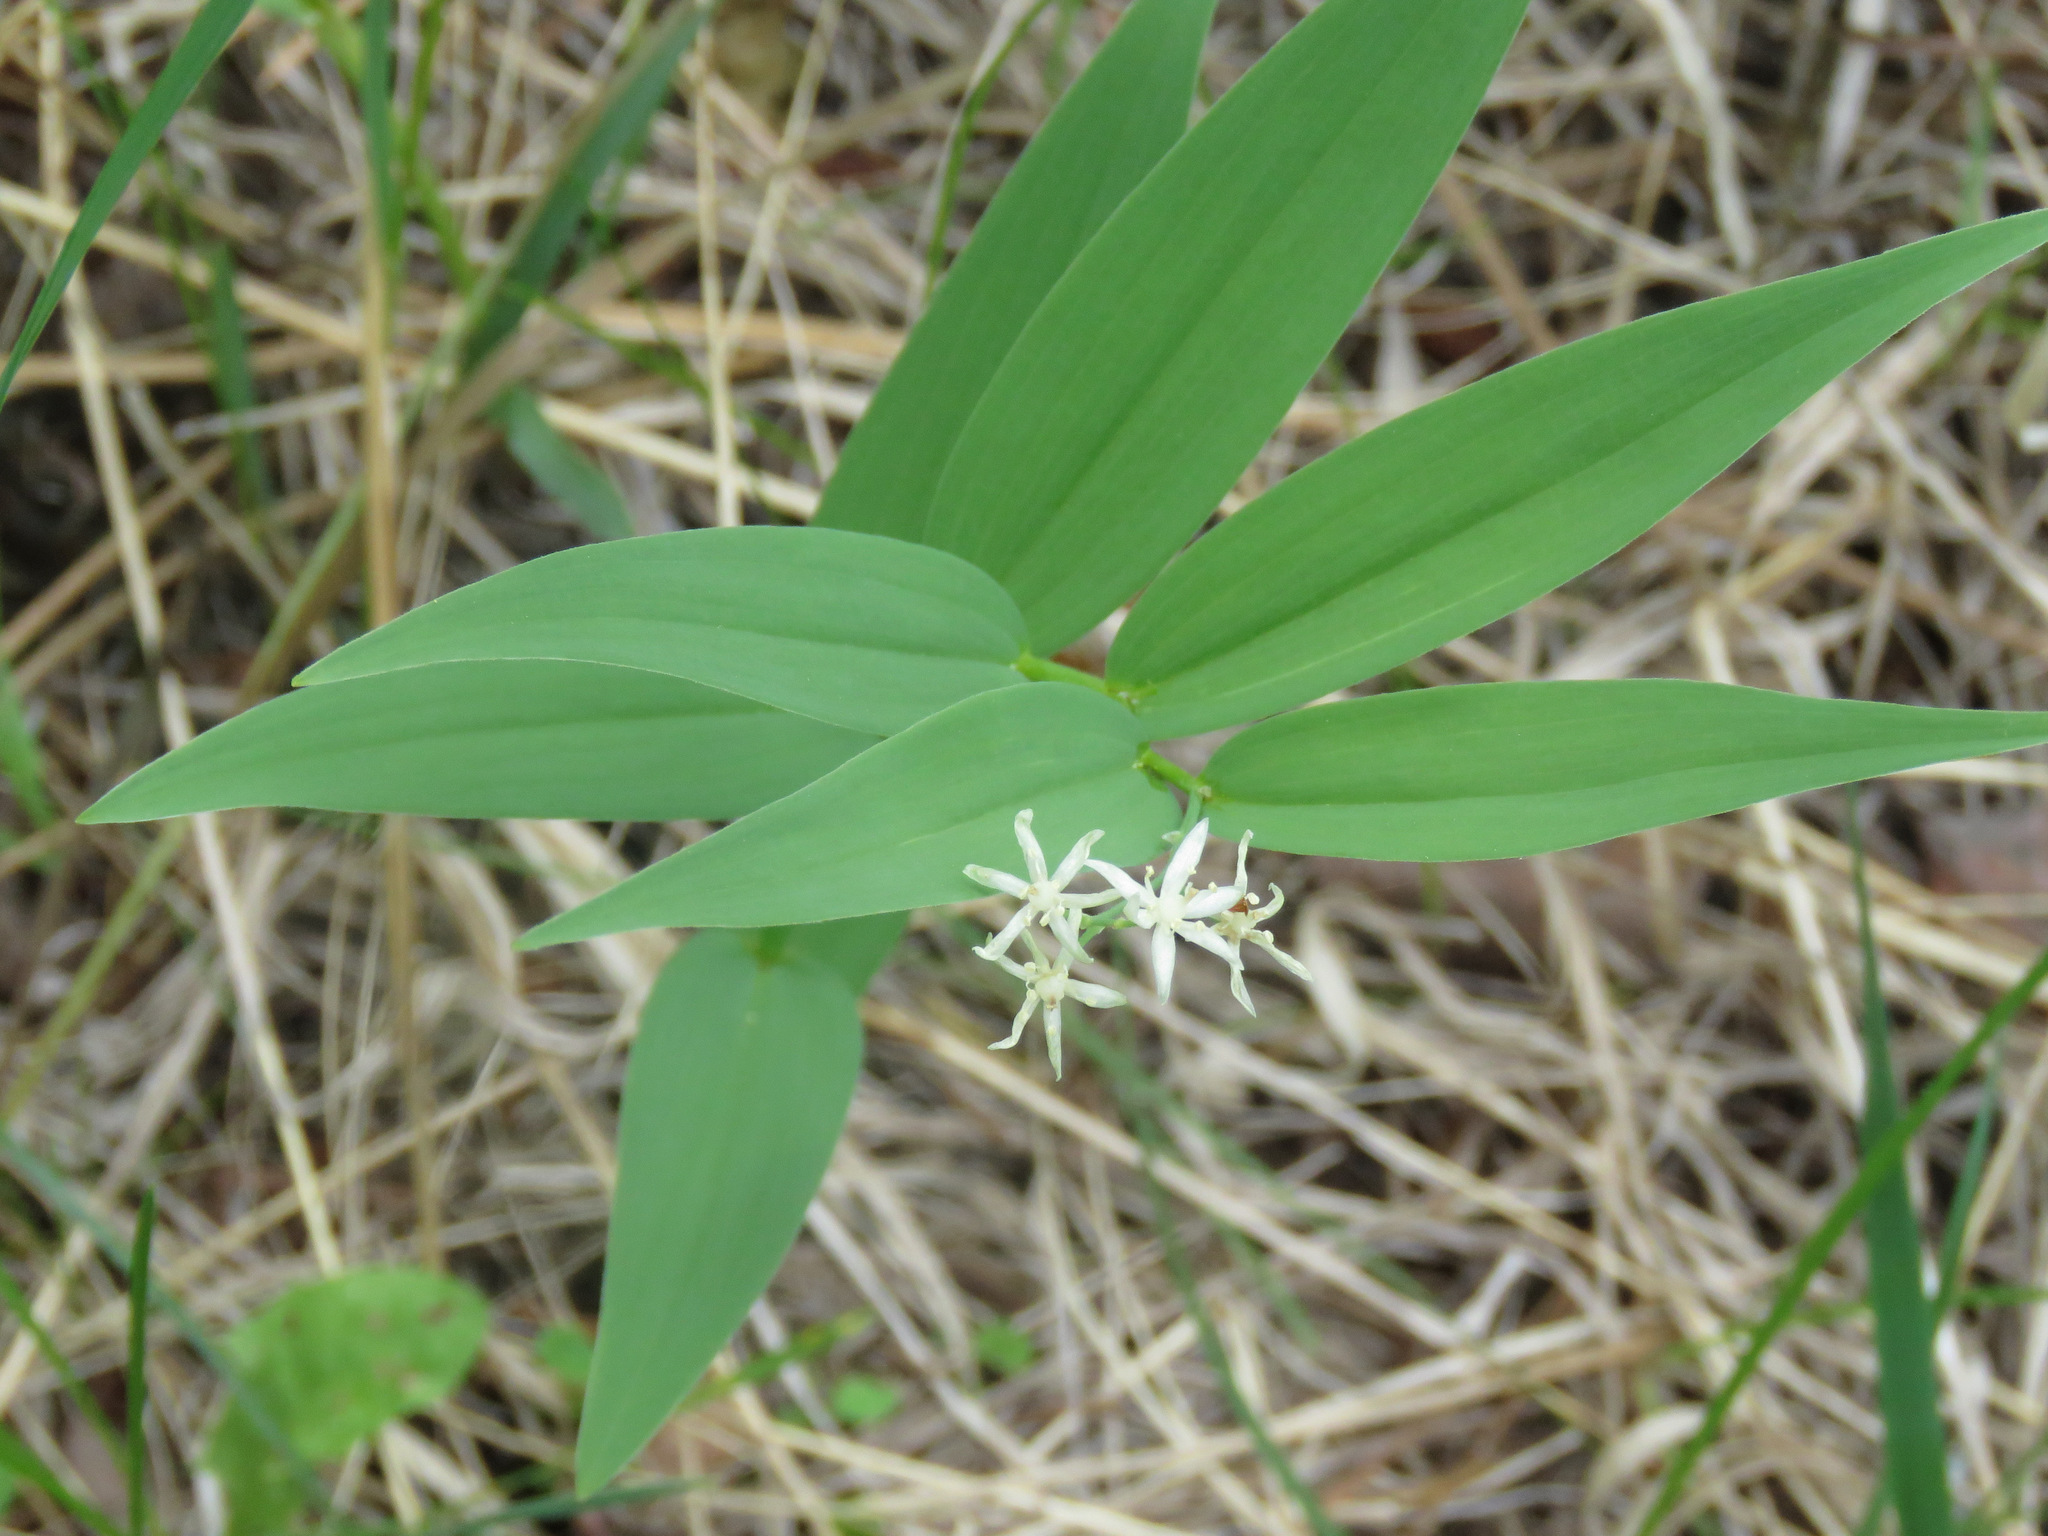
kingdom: Plantae
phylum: Tracheophyta
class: Liliopsida
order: Asparagales
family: Asparagaceae
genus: Maianthemum
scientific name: Maianthemum stellatum
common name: Little false solomon's seal
